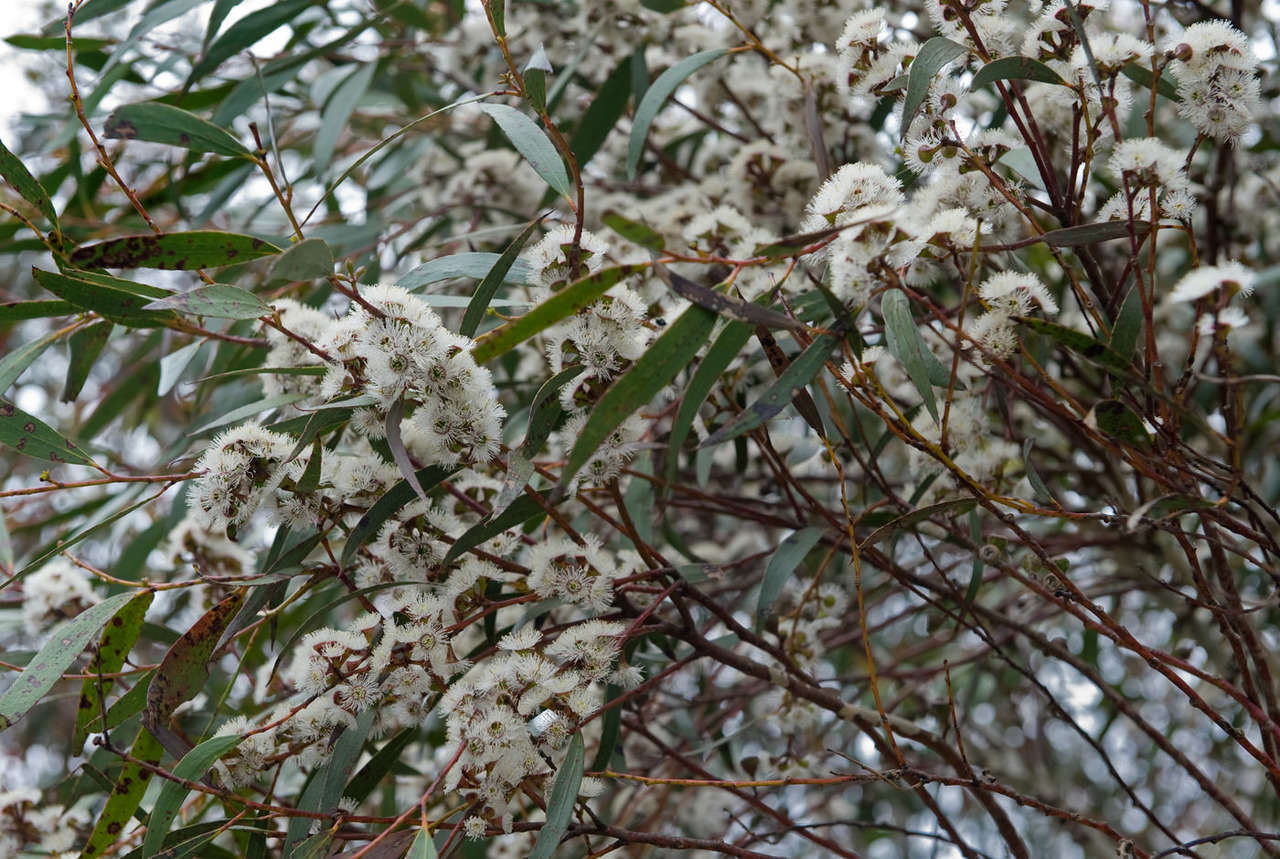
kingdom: Plantae
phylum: Tracheophyta
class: Magnoliopsida
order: Myrtales
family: Myrtaceae
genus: Eucalyptus
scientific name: Eucalyptus pauciflora
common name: Snow gum
